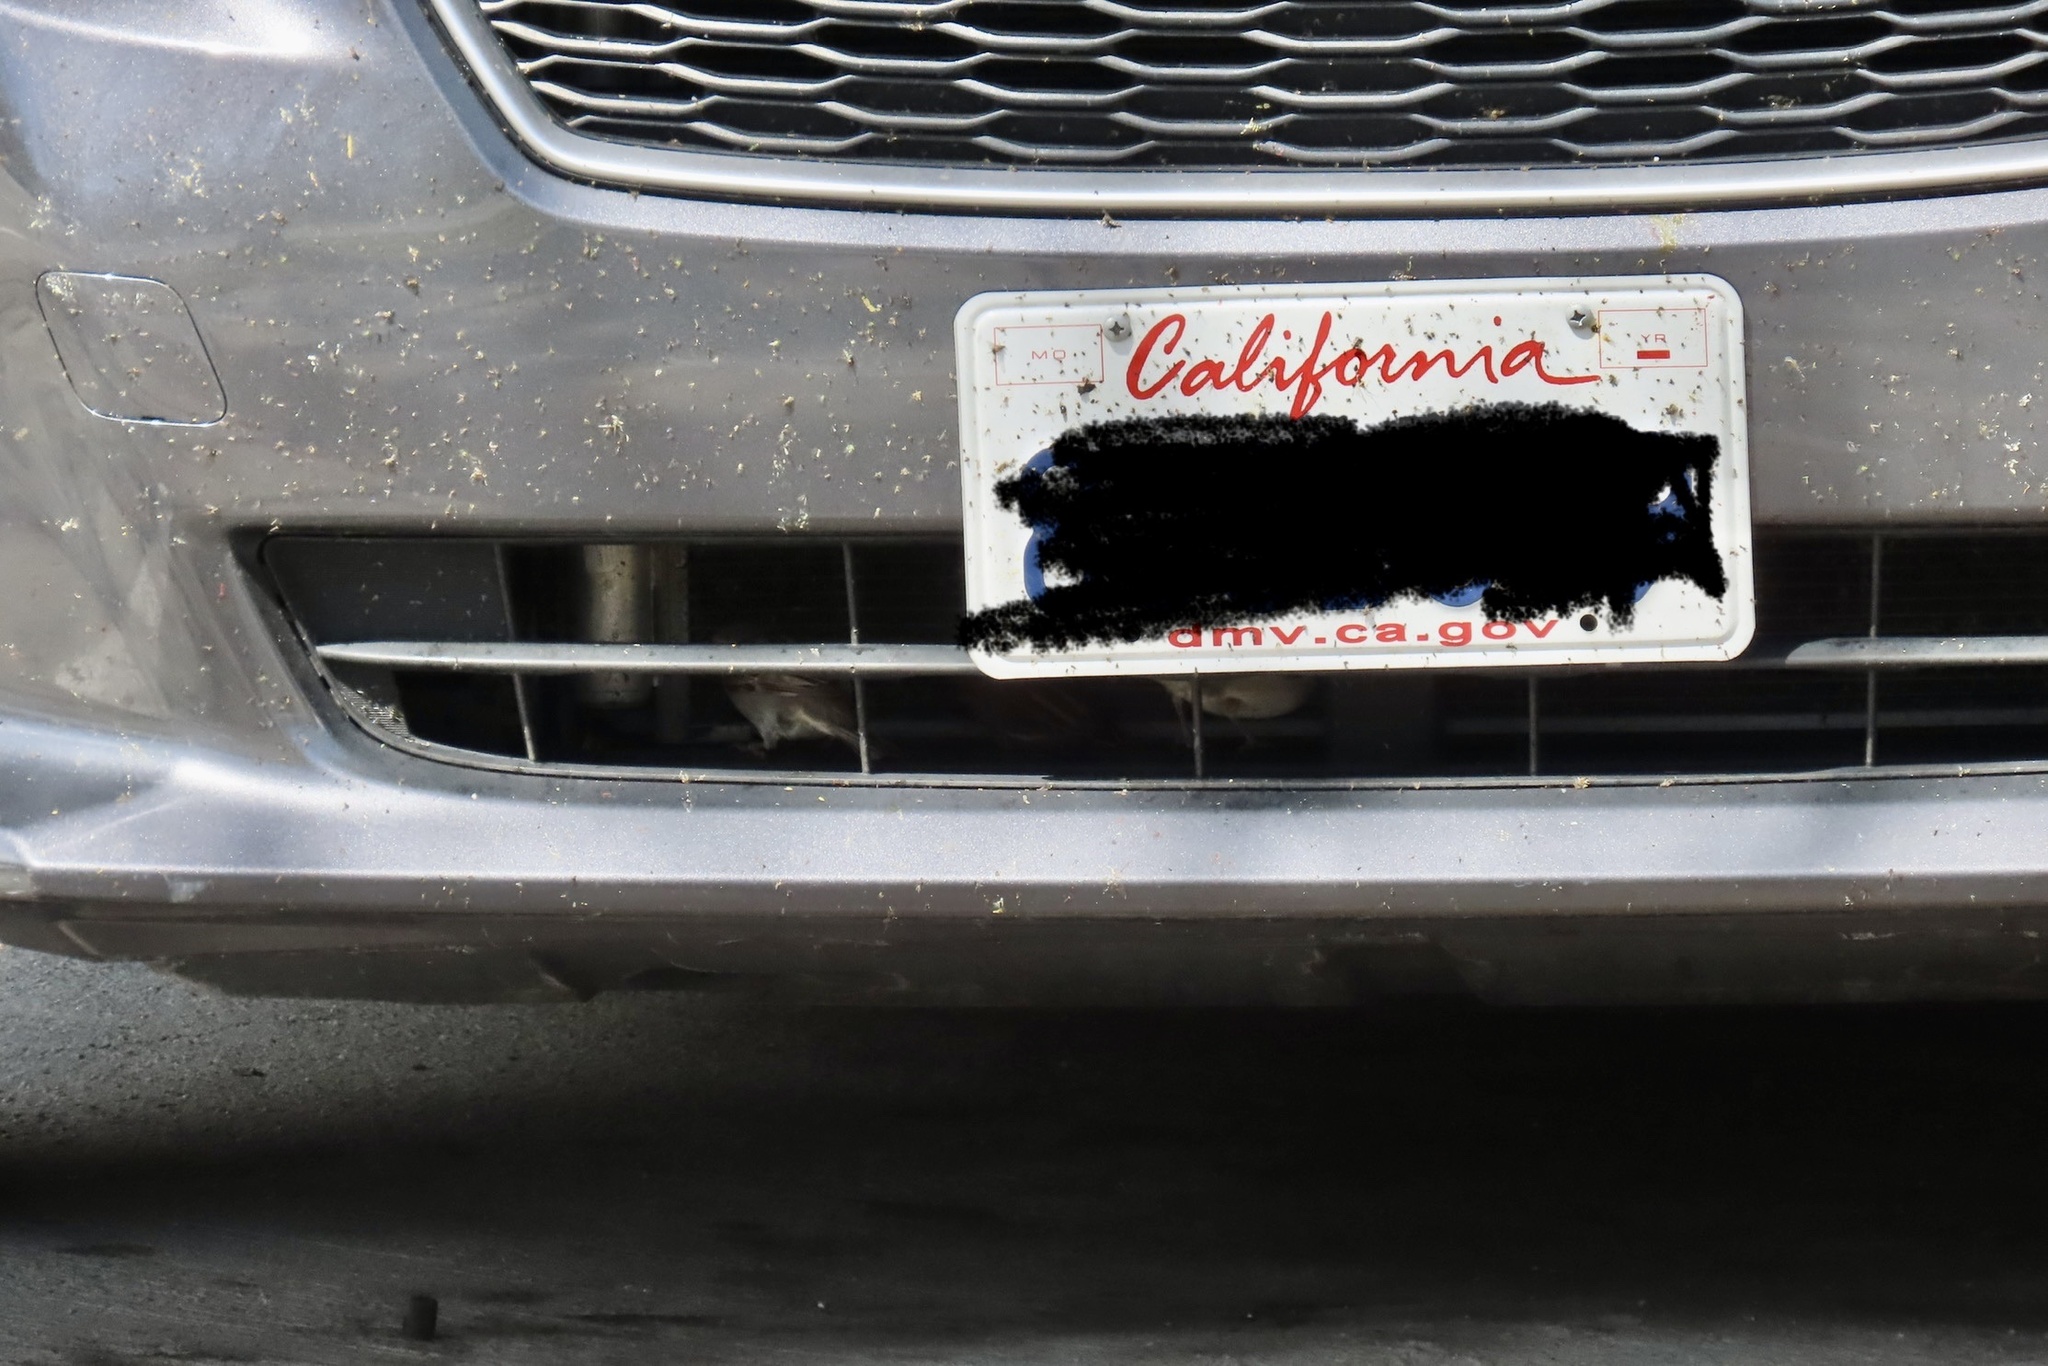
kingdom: Animalia
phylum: Chordata
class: Aves
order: Passeriformes
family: Passeridae
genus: Passer
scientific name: Passer domesticus
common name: House sparrow
